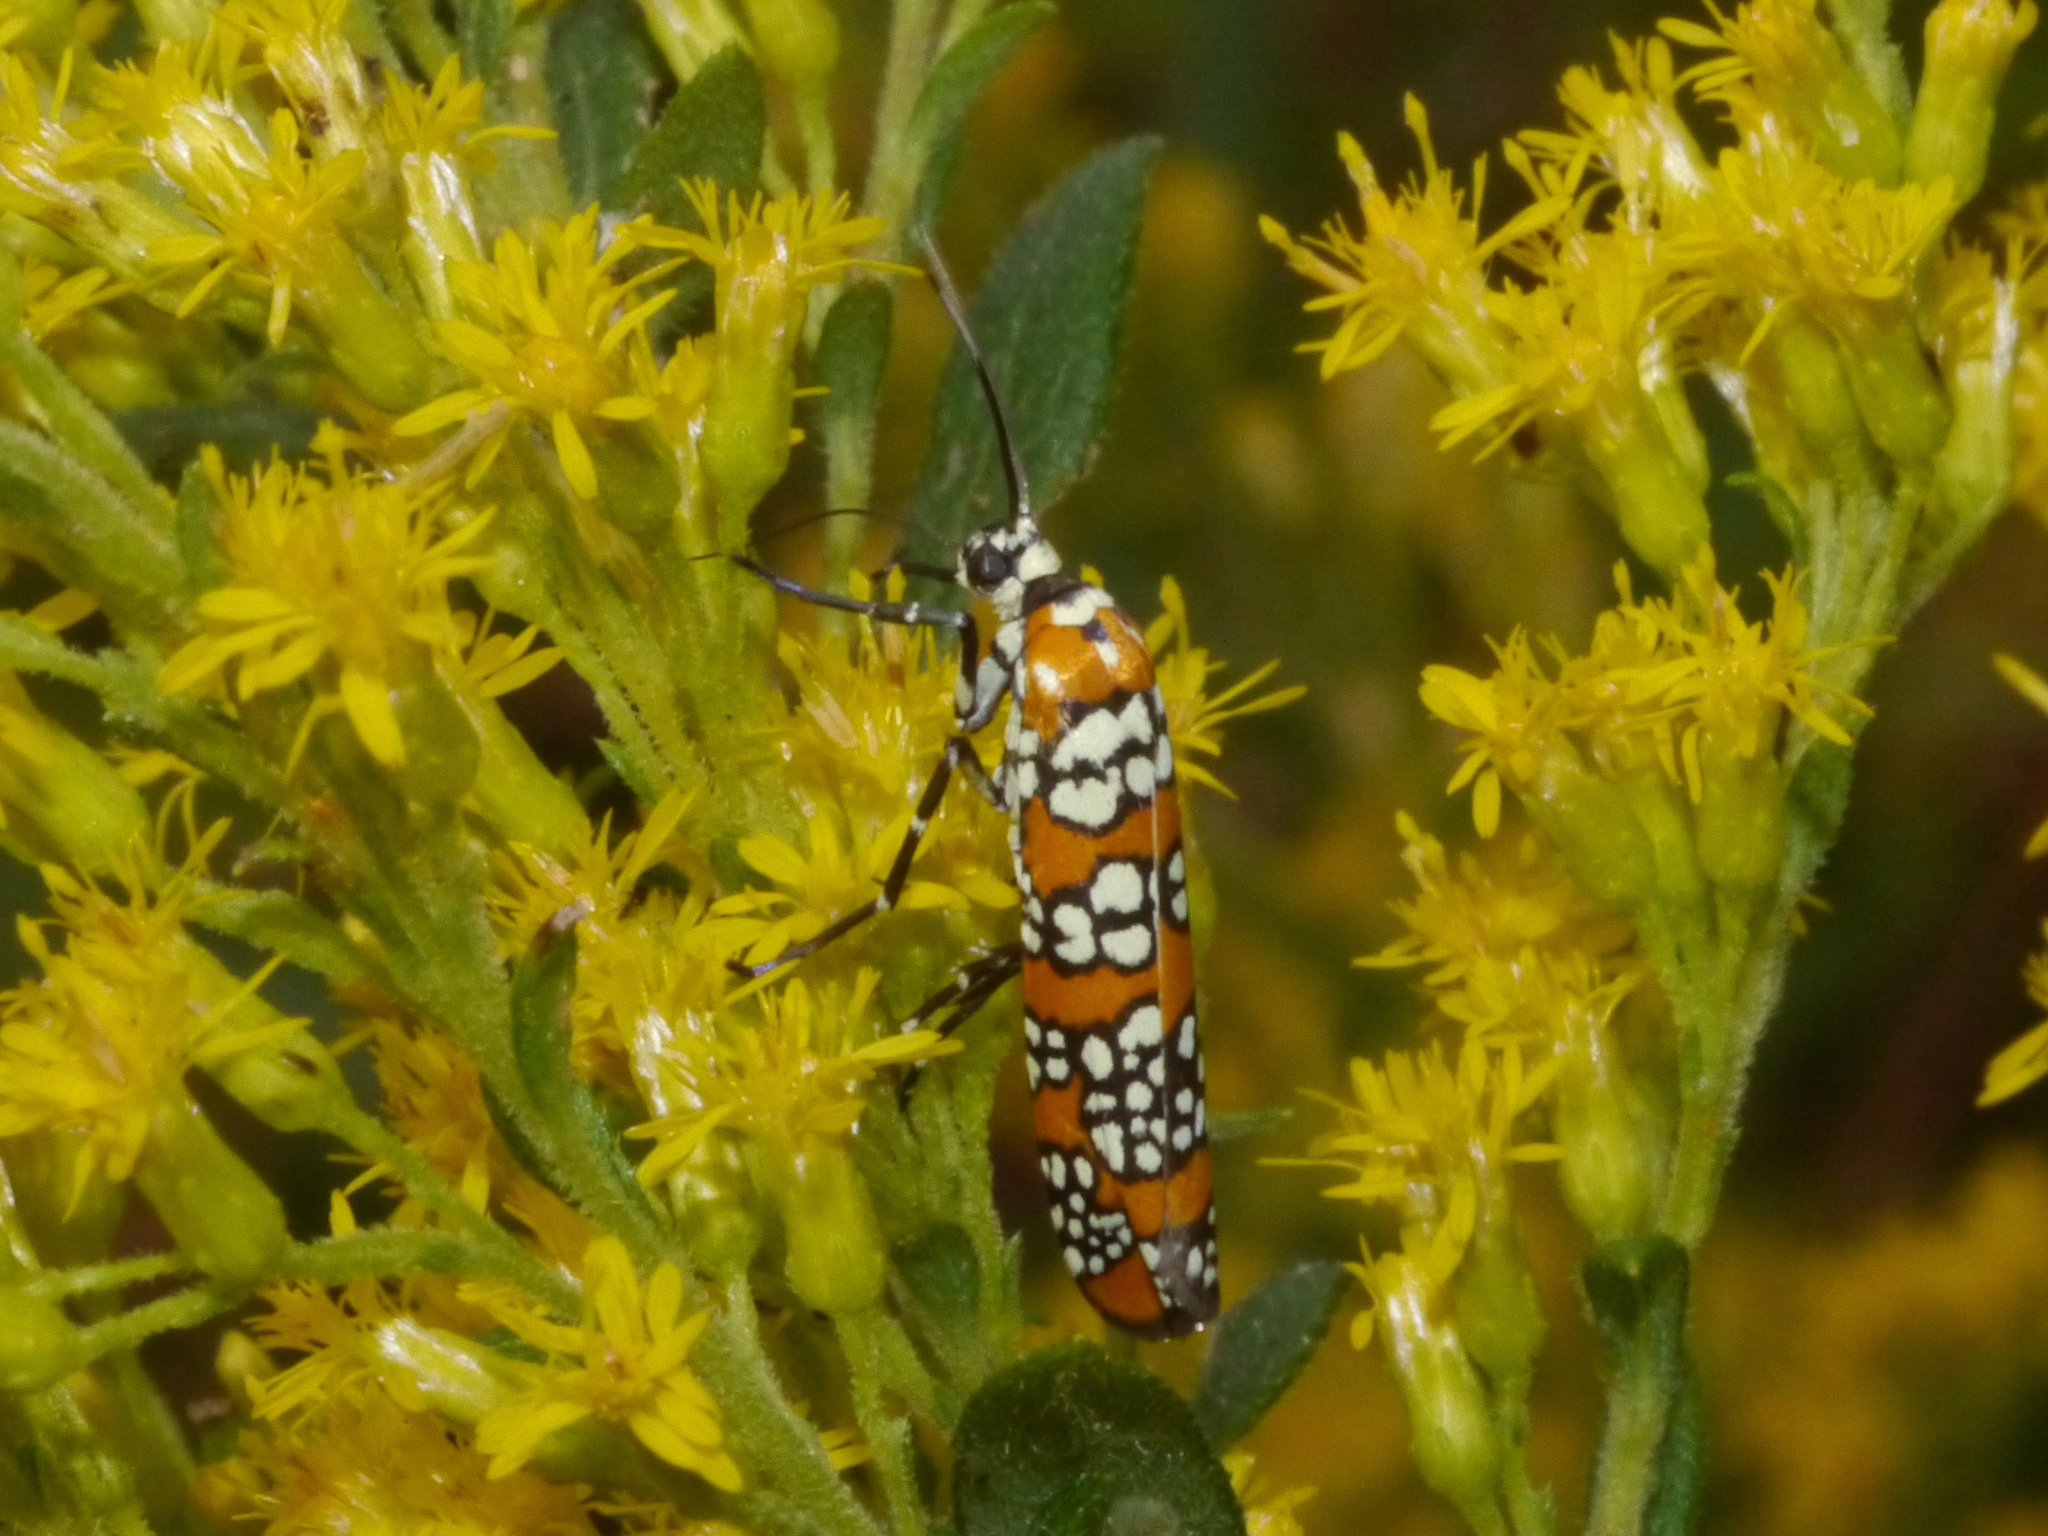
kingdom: Animalia
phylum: Arthropoda
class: Insecta
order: Lepidoptera
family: Attevidae
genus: Atteva
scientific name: Atteva punctella
